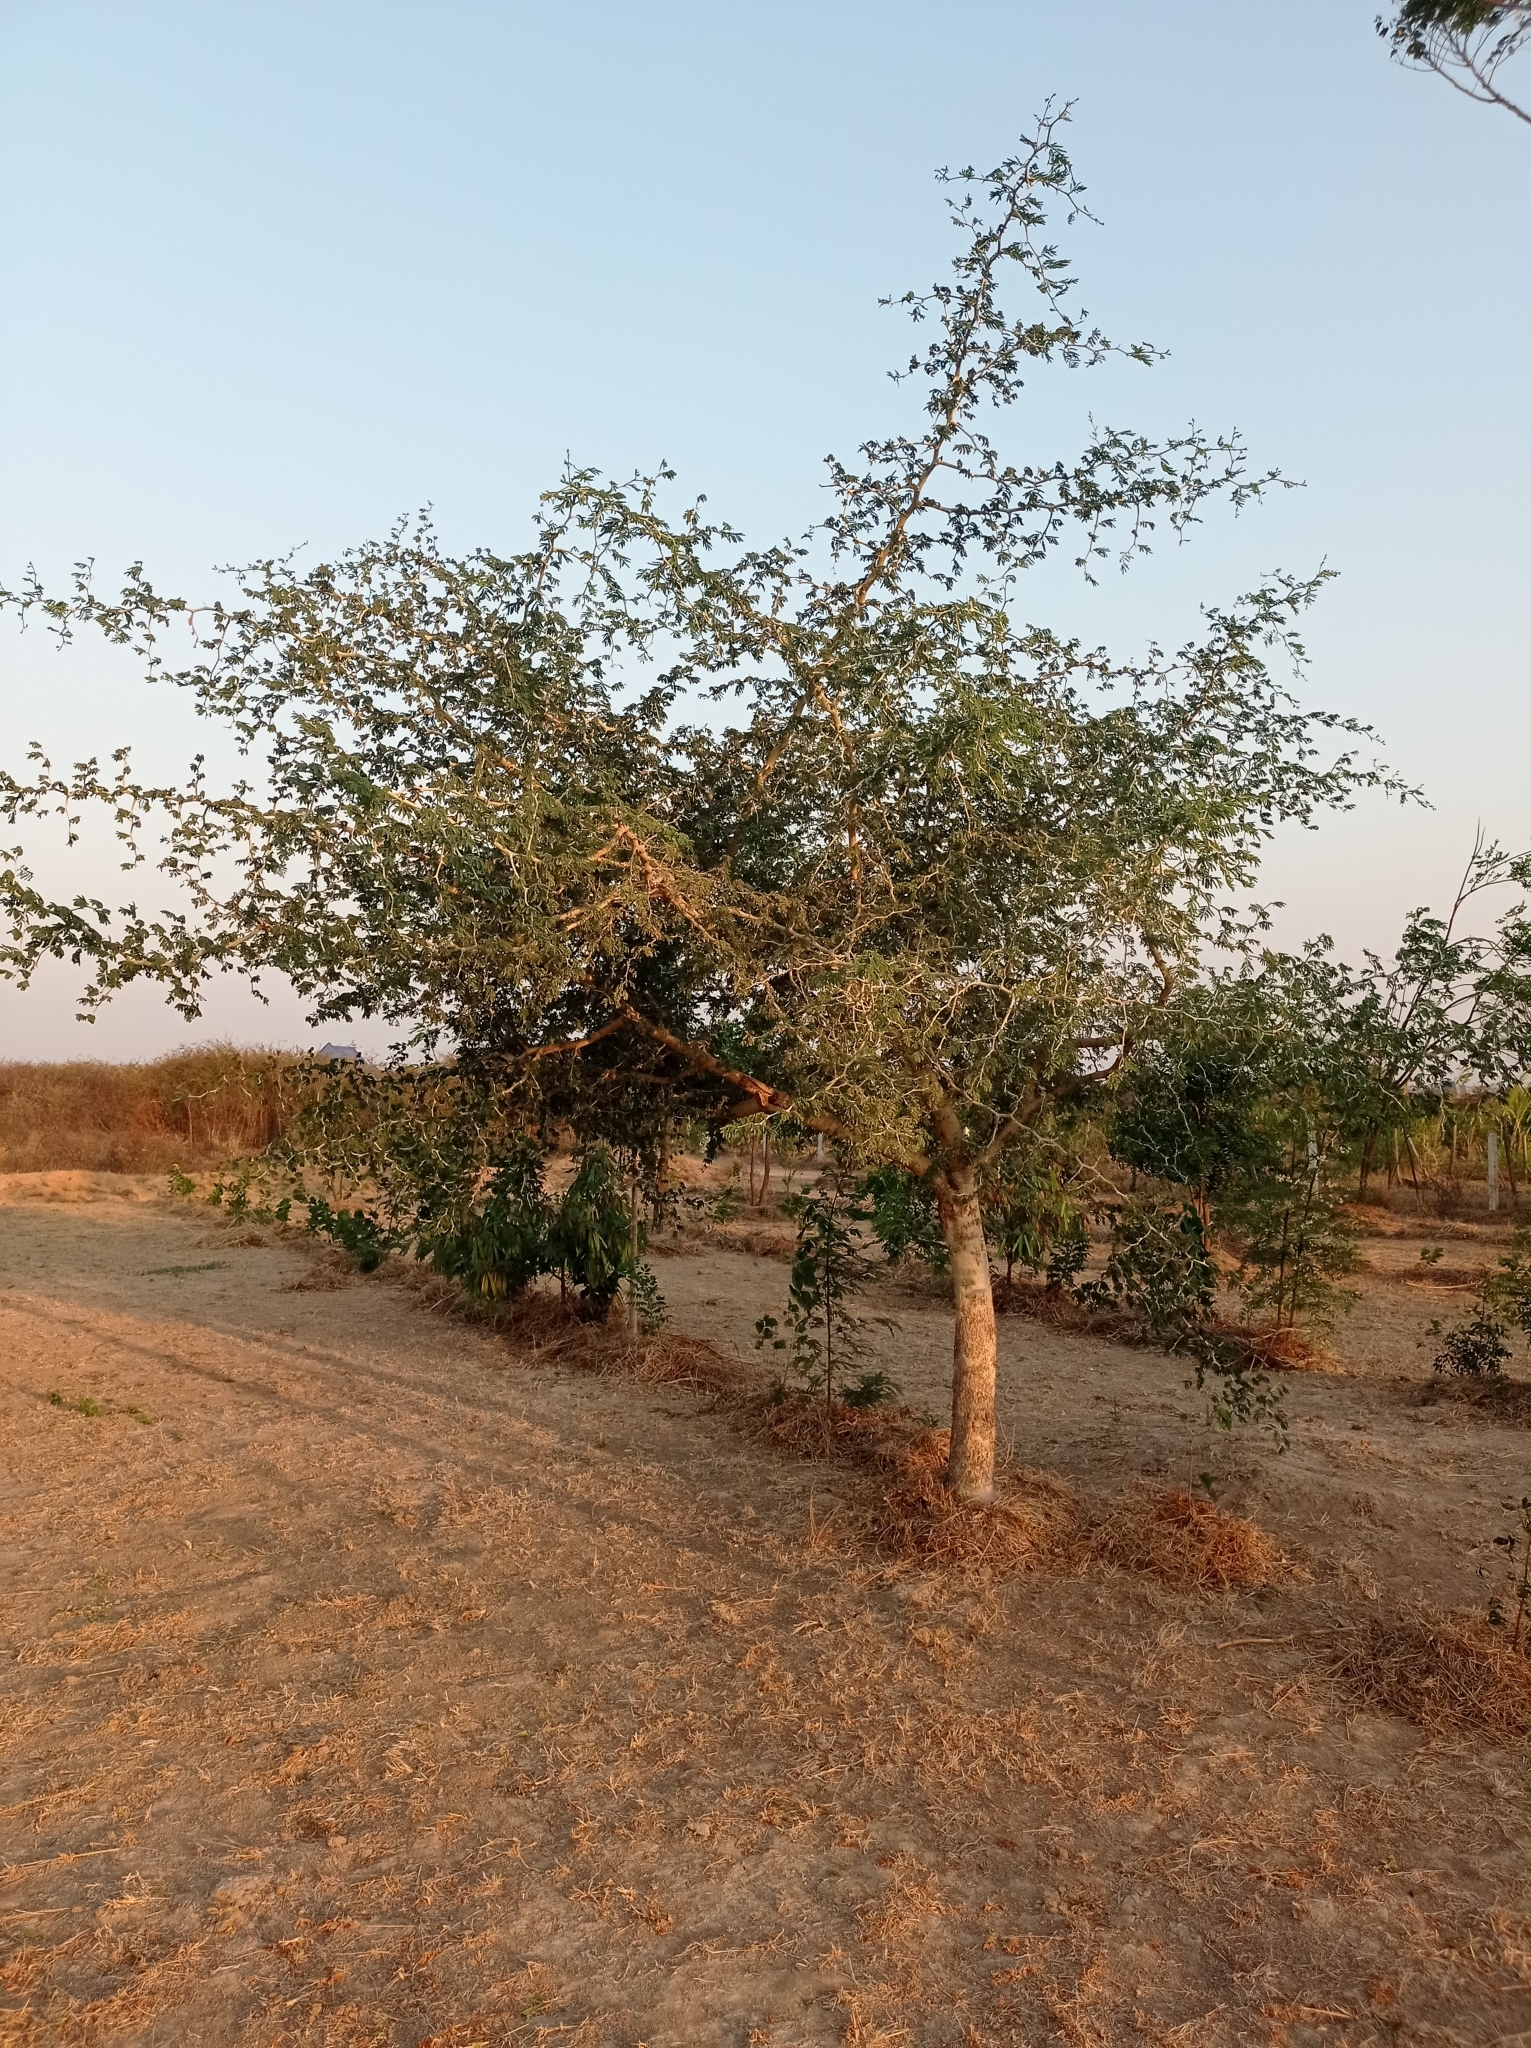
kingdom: Plantae
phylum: Tracheophyta
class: Magnoliopsida
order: Fabales
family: Fabaceae
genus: Faidherbia
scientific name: Faidherbia albida
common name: Anatree
